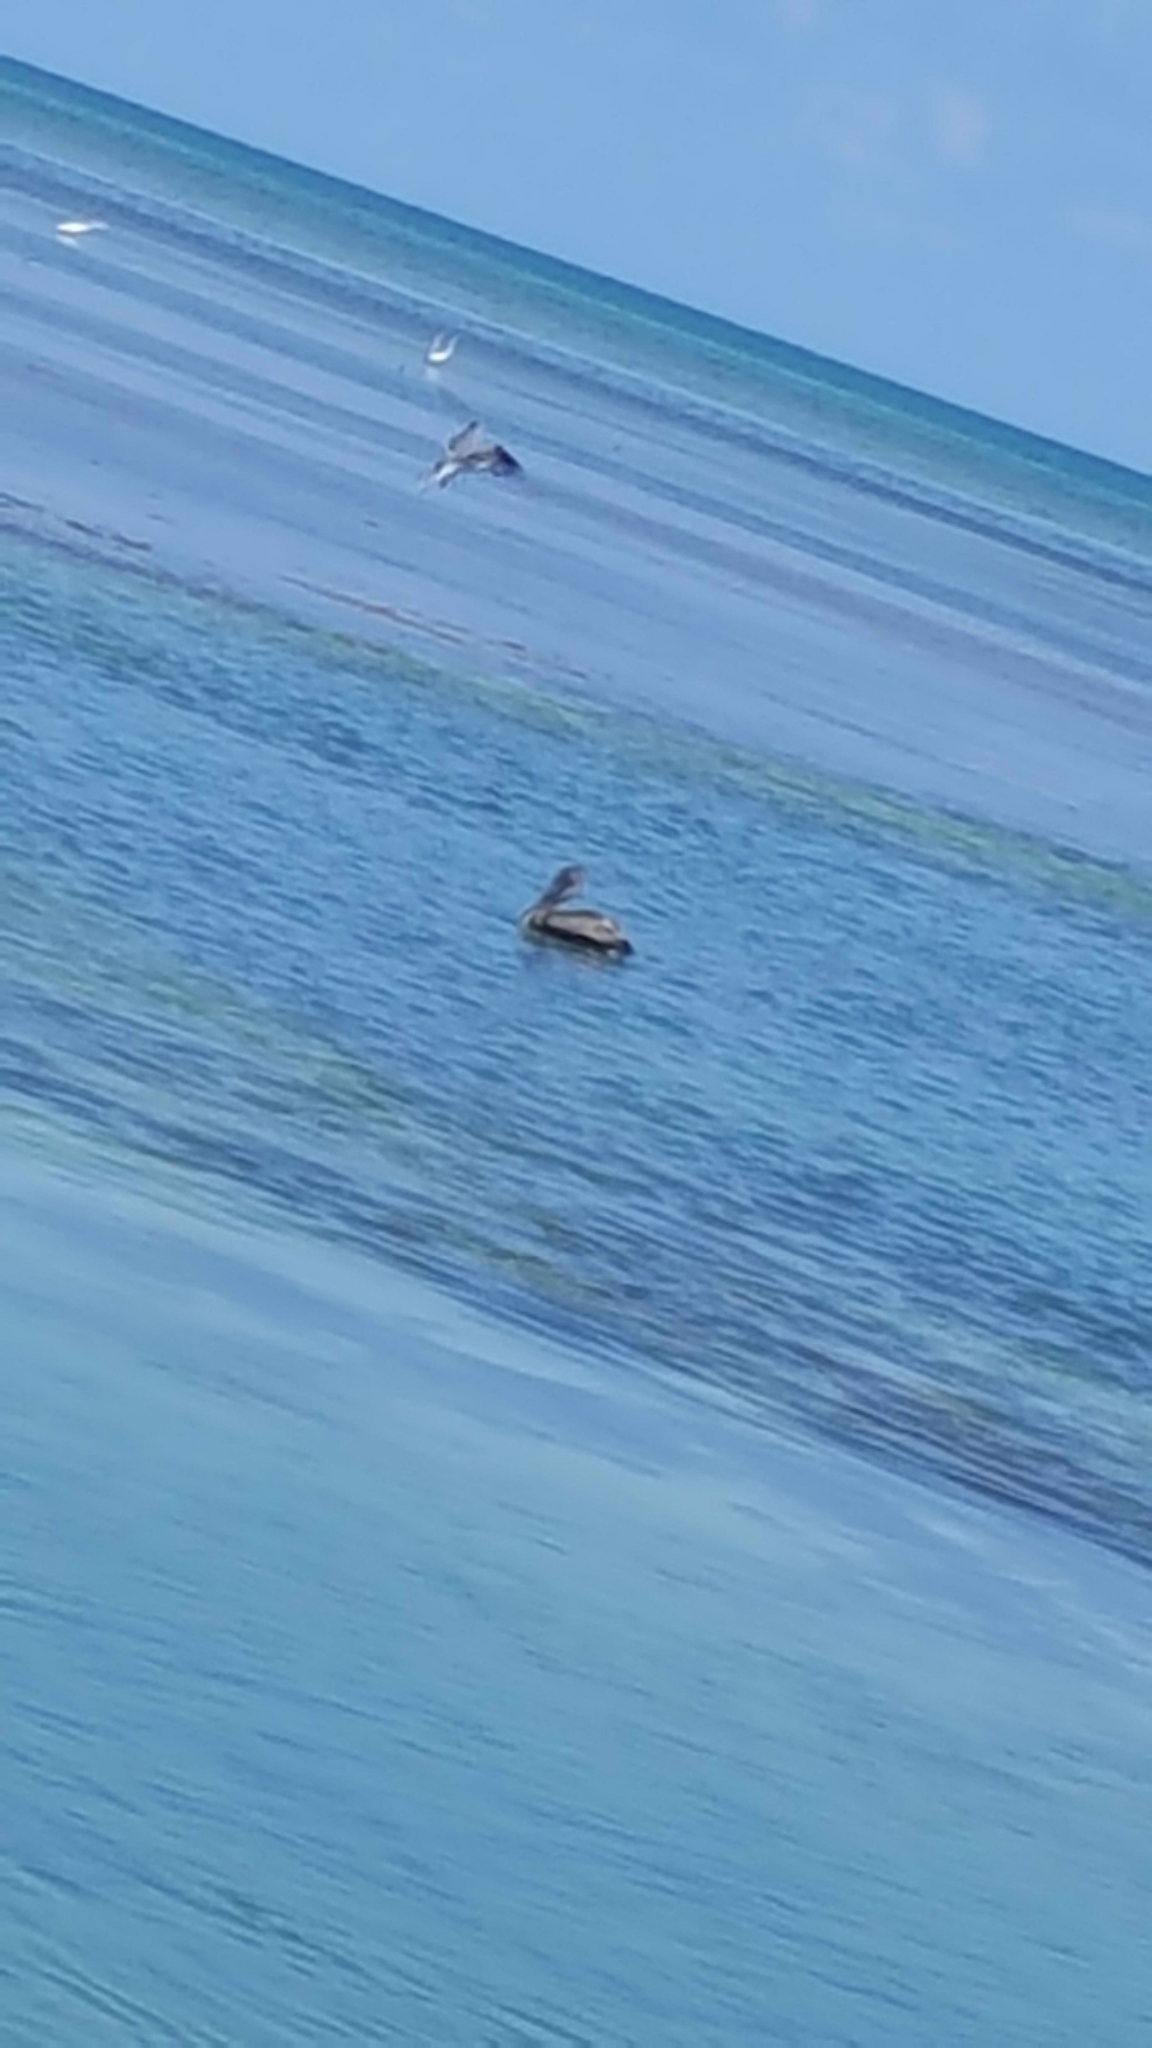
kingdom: Animalia
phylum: Chordata
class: Aves
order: Pelecaniformes
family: Pelecanidae
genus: Pelecanus
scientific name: Pelecanus occidentalis
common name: Brown pelican
